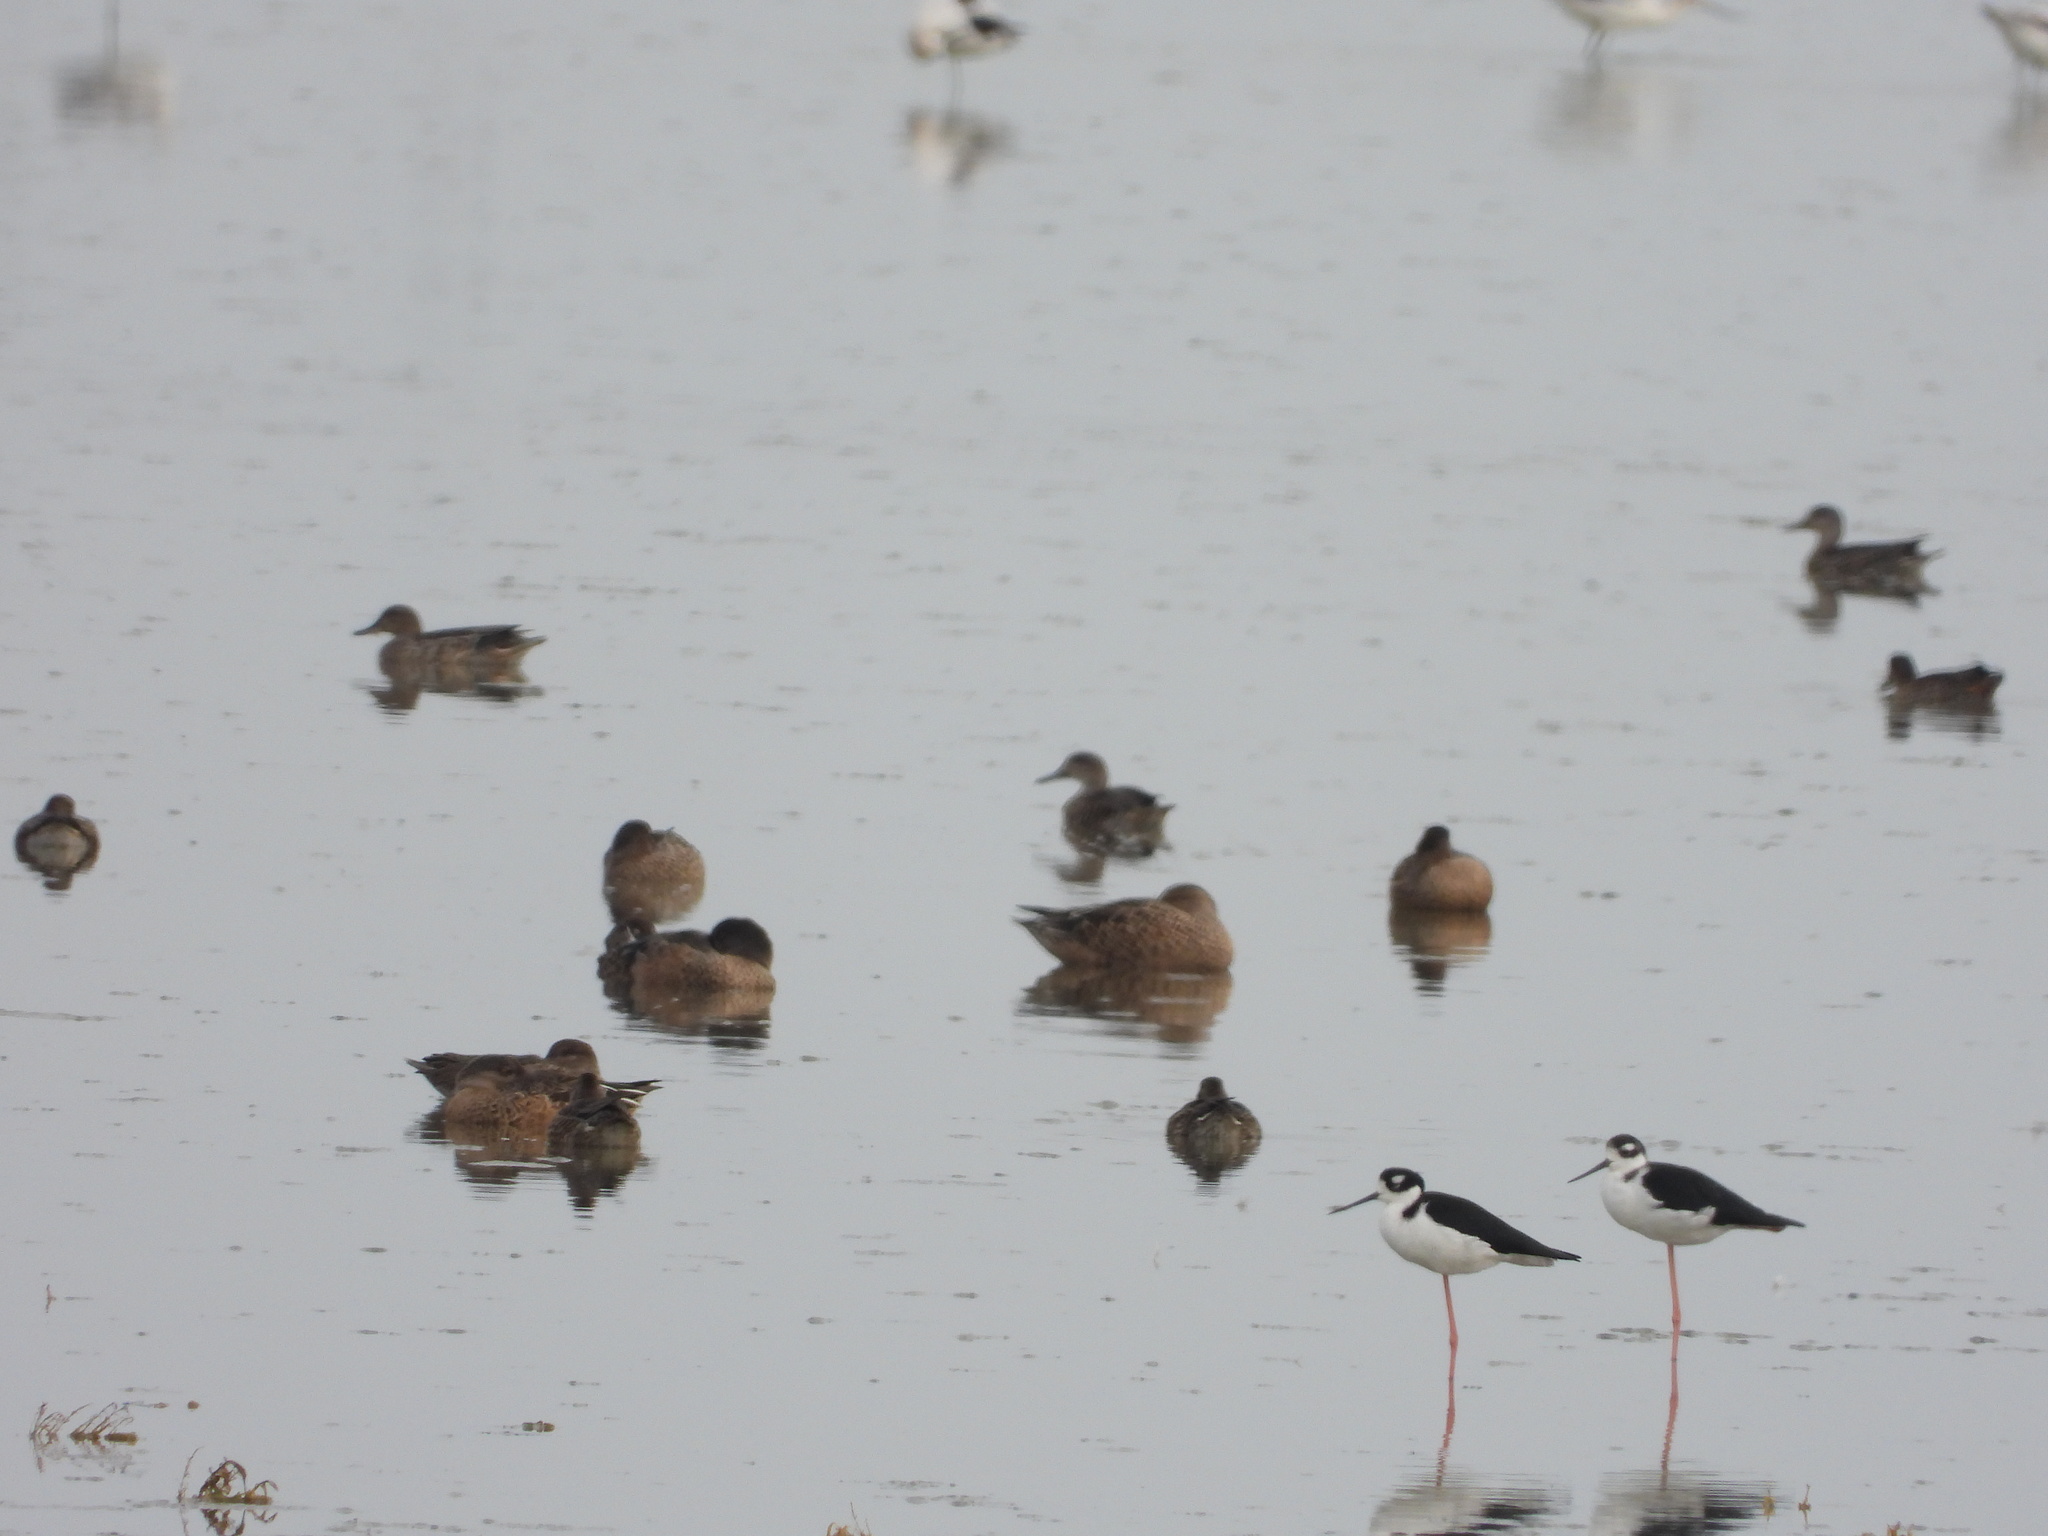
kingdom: Animalia
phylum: Chordata
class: Aves
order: Charadriiformes
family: Recurvirostridae
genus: Himantopus
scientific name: Himantopus mexicanus
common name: Black-necked stilt
